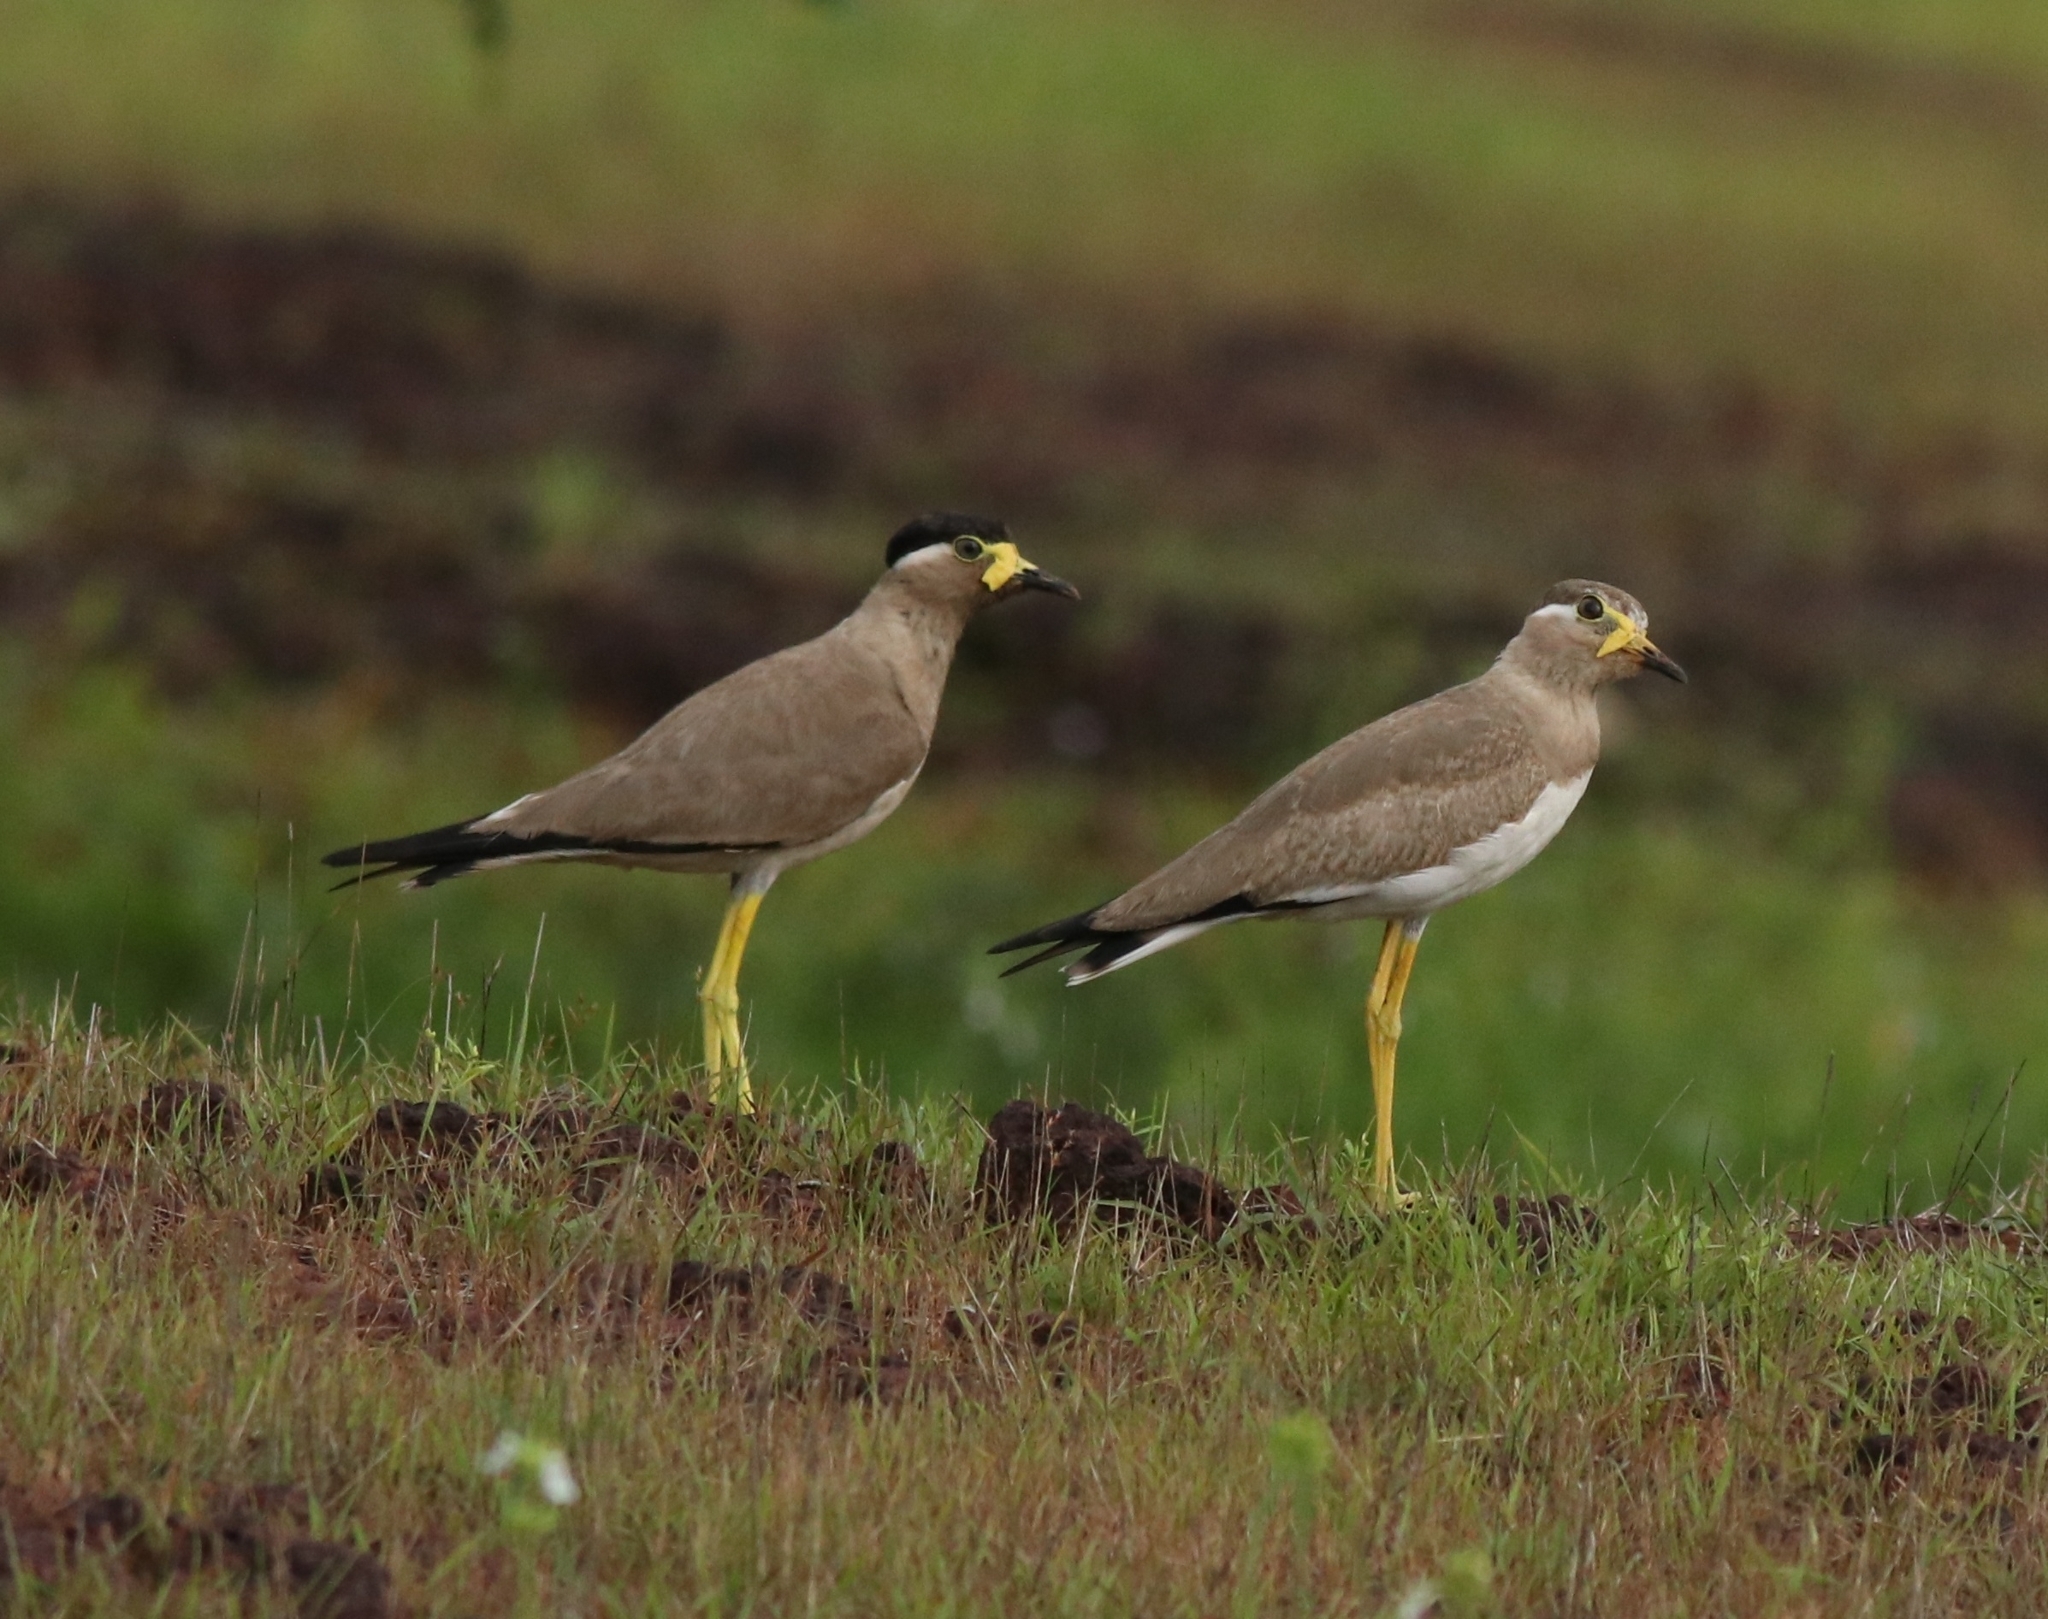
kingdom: Animalia
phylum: Chordata
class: Aves
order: Charadriiformes
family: Charadriidae
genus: Vanellus
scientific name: Vanellus malabaricus
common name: Yellow-wattled lapwing
